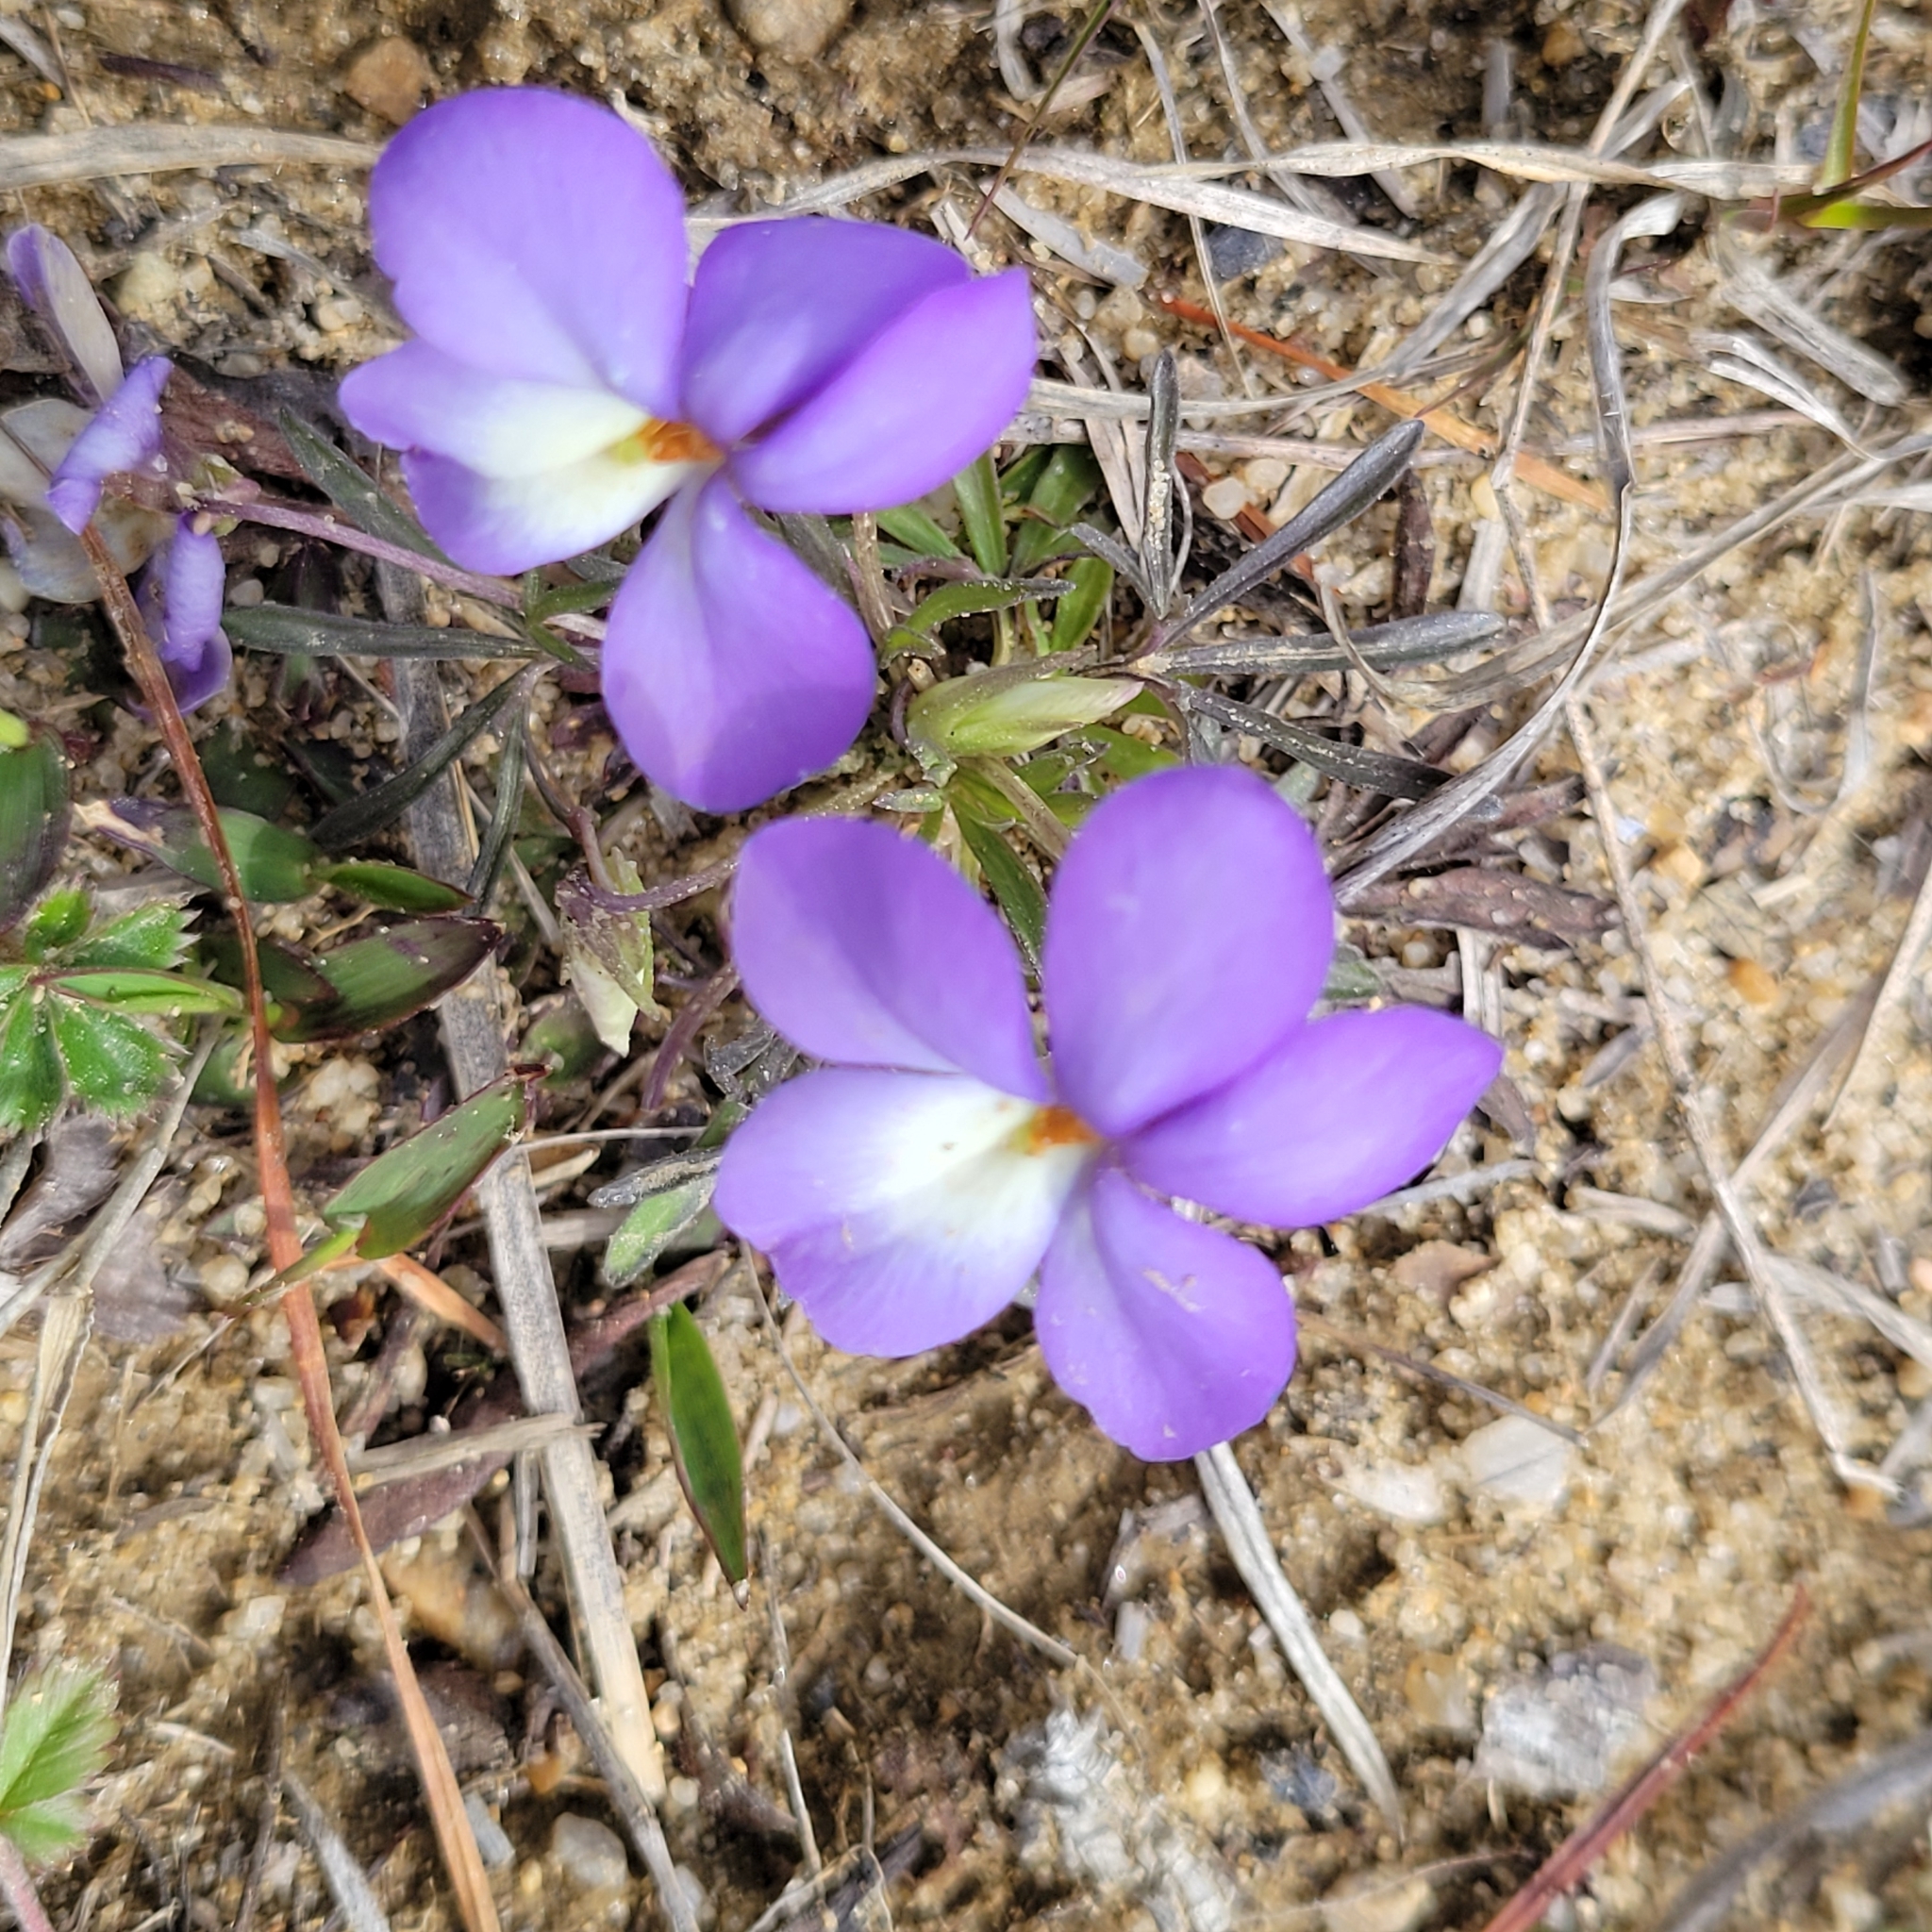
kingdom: Plantae
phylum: Tracheophyta
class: Magnoliopsida
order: Malpighiales
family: Violaceae
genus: Viola
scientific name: Viola pedata
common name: Pansy violet
